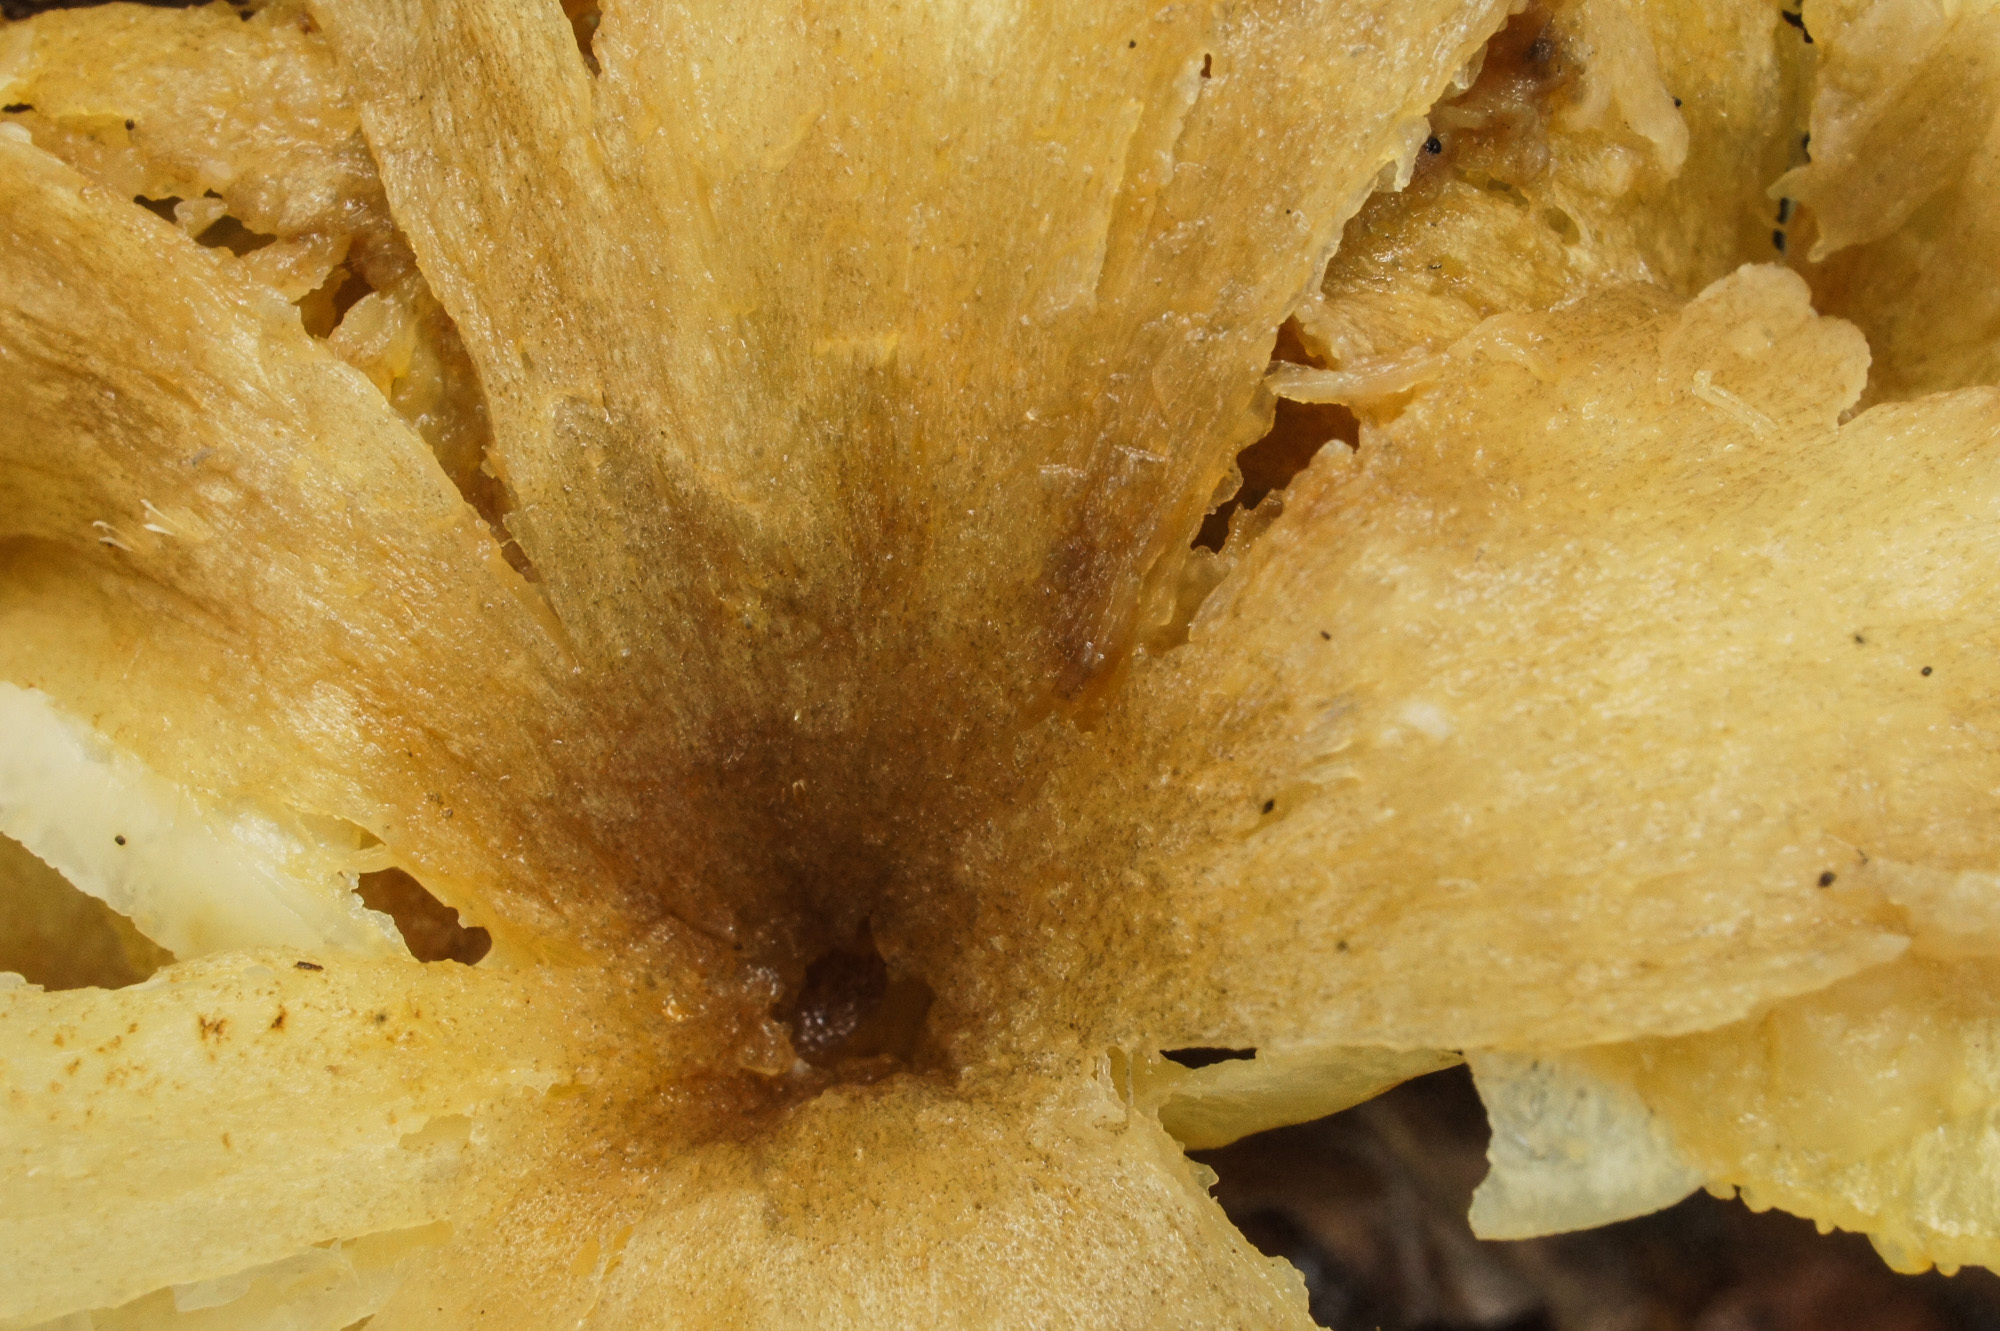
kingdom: Fungi
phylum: Basidiomycota
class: Agaricomycetes
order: Agaricales
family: Marasmiaceae
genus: Gerronema
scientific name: Gerronema strombodes
